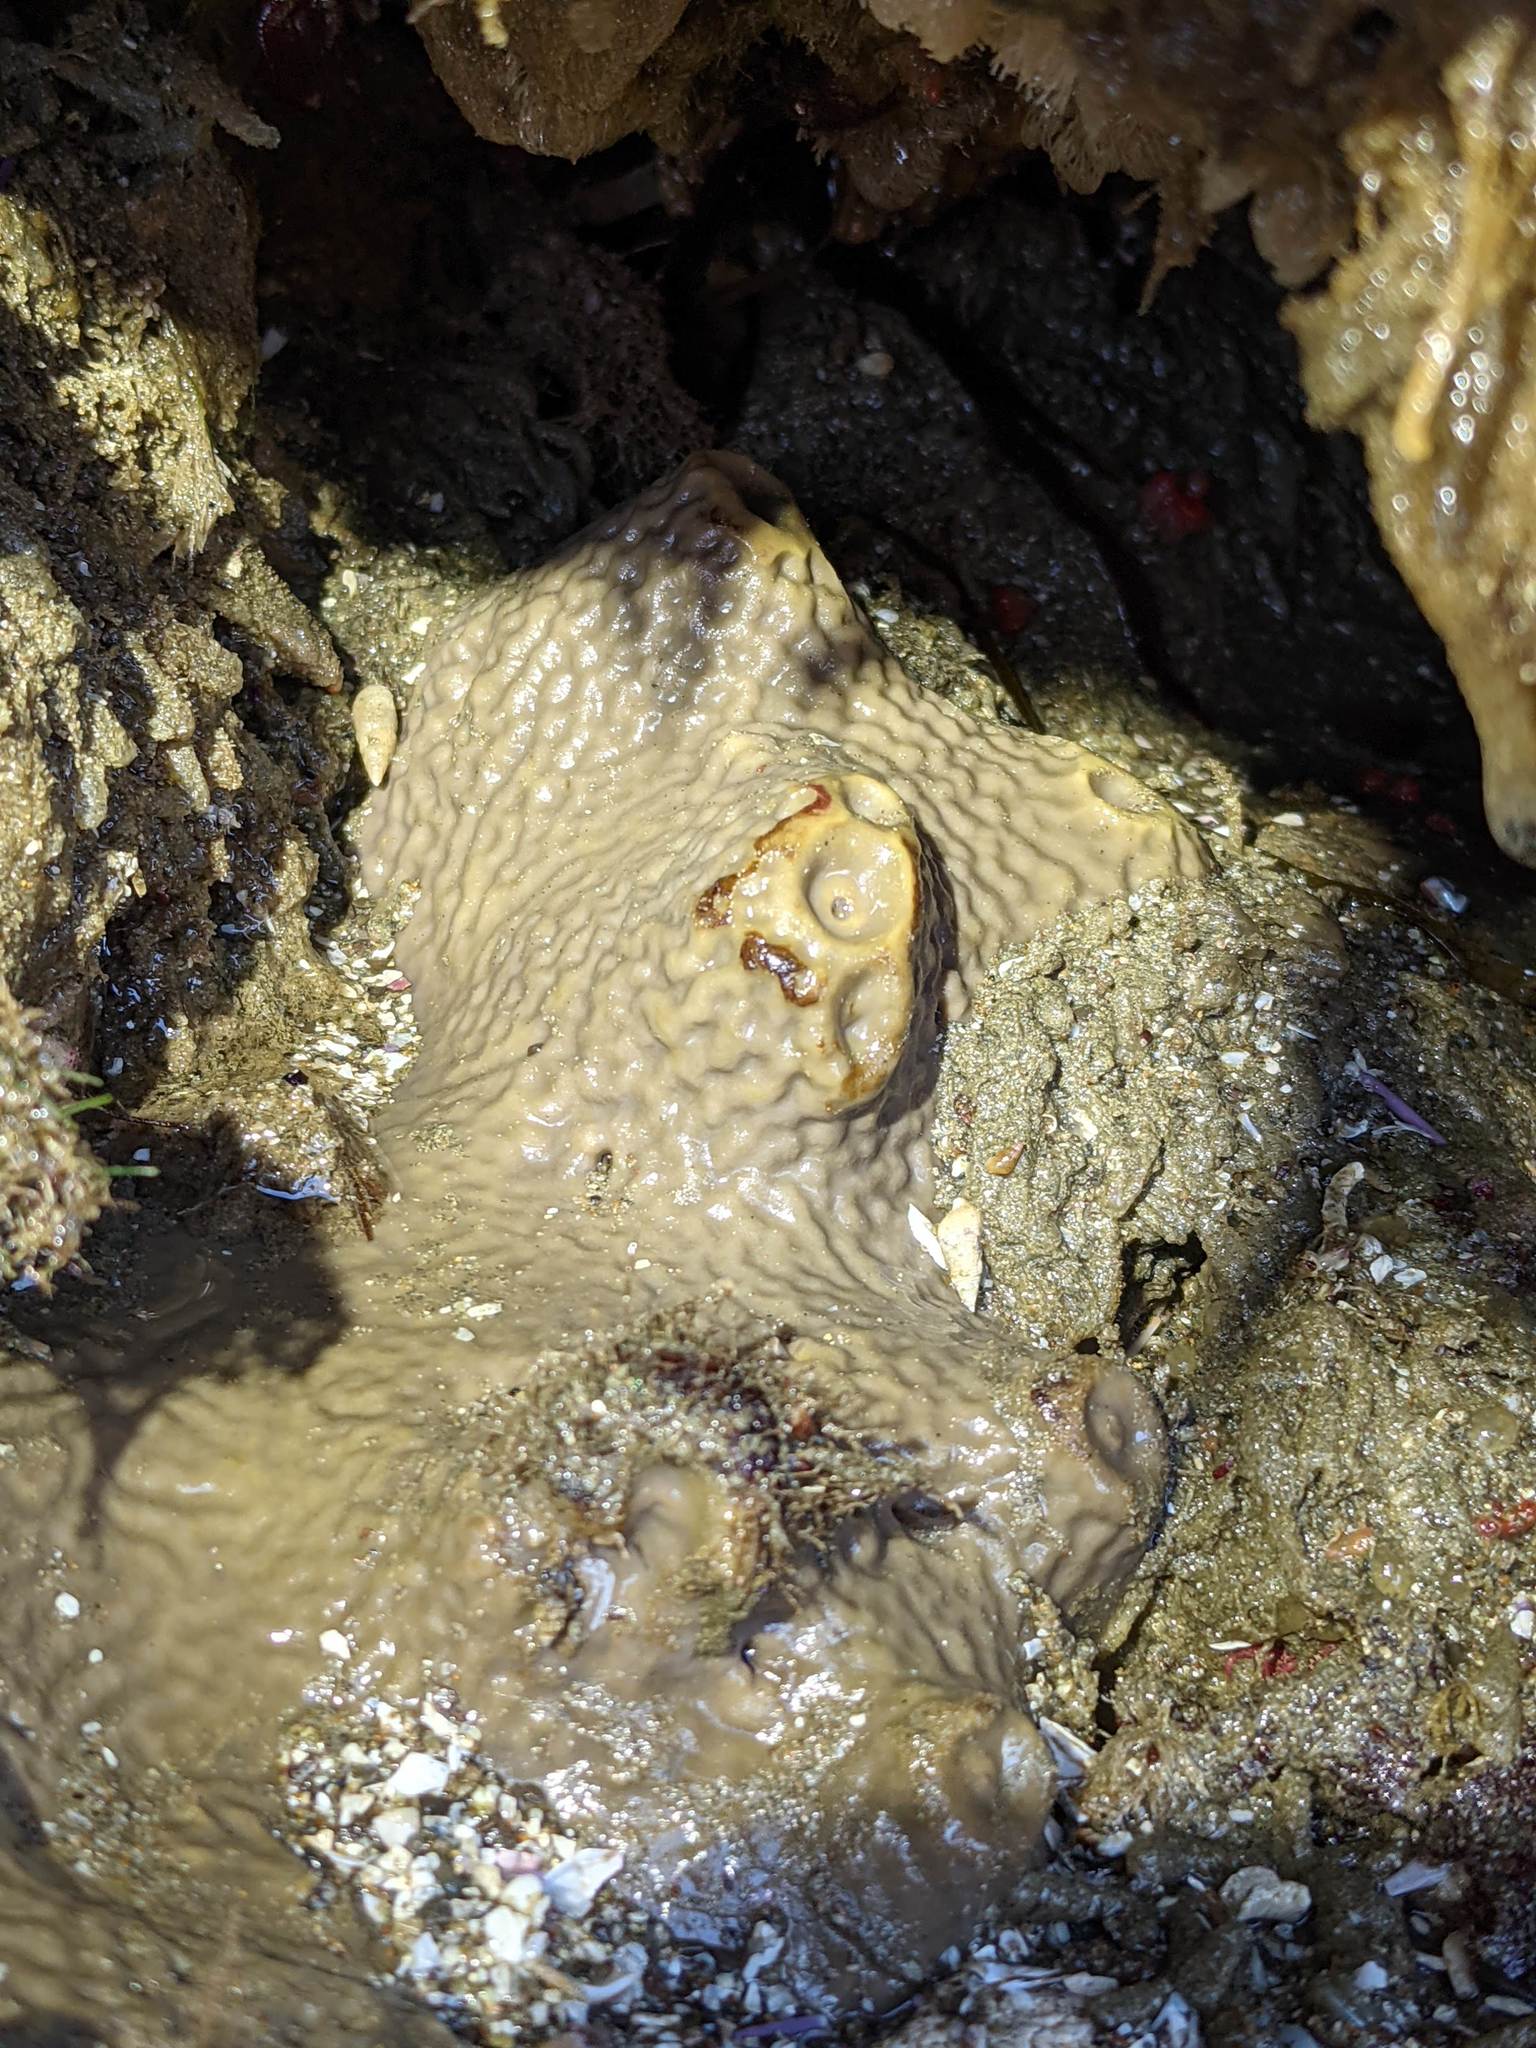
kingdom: Animalia
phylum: Porifera
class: Demospongiae
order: Clionaida
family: Clionaidae
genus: Spheciospongia
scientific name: Spheciospongia confoederata
